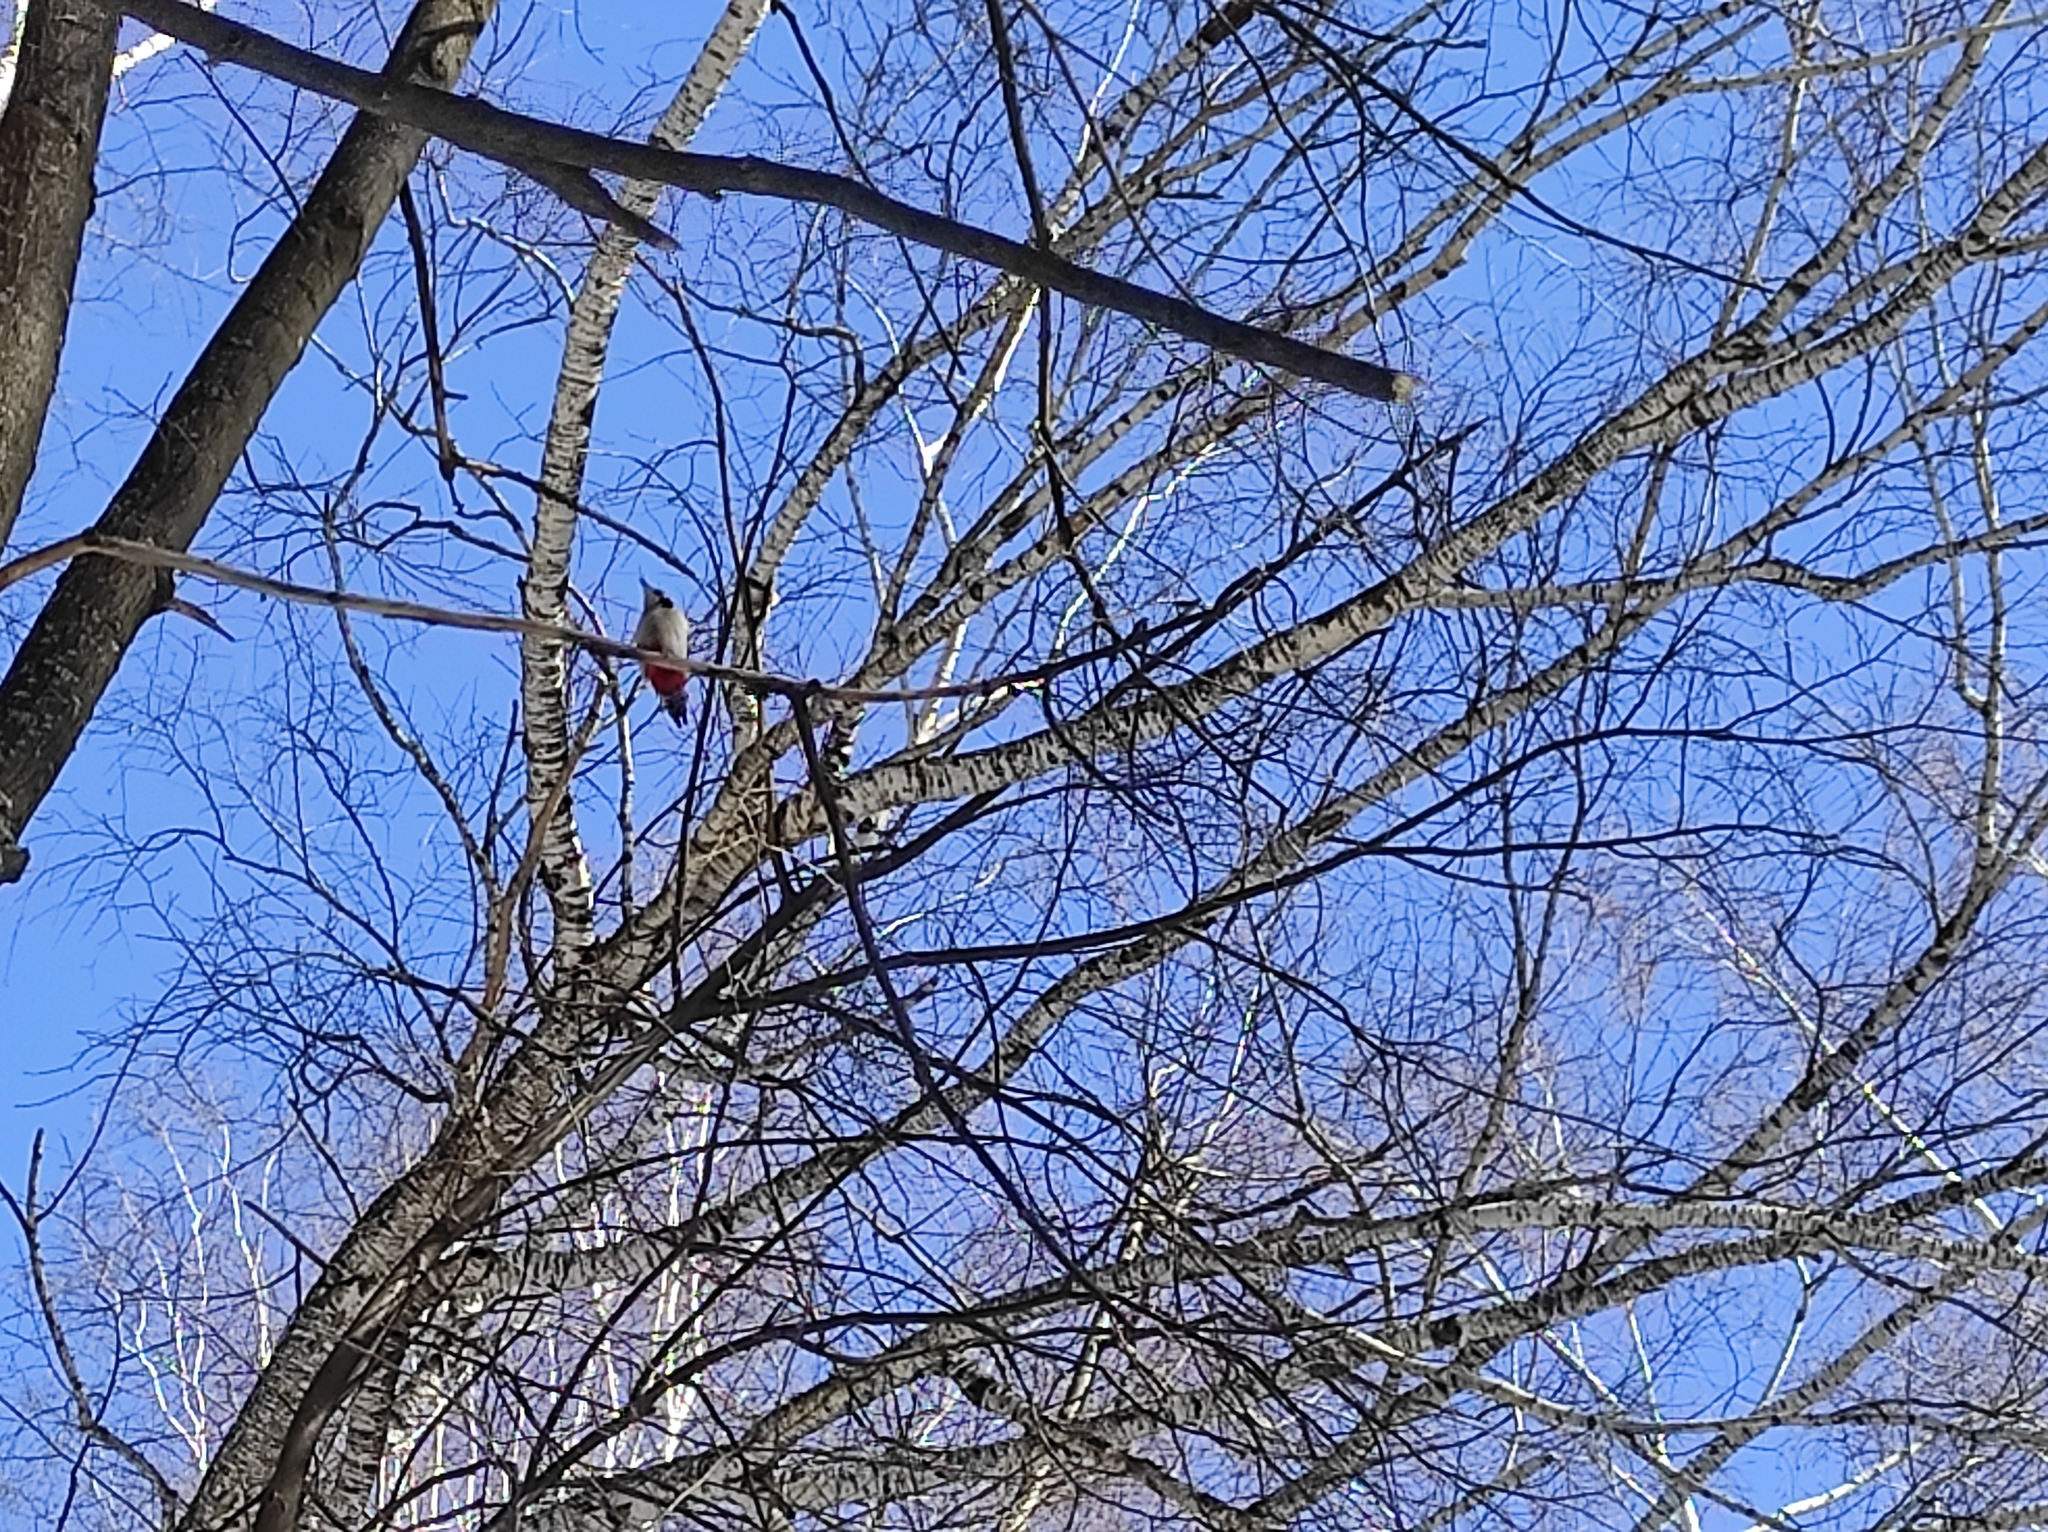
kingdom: Animalia
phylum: Chordata
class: Aves
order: Piciformes
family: Picidae
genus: Dendrocopos
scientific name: Dendrocopos major
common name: Great spotted woodpecker
